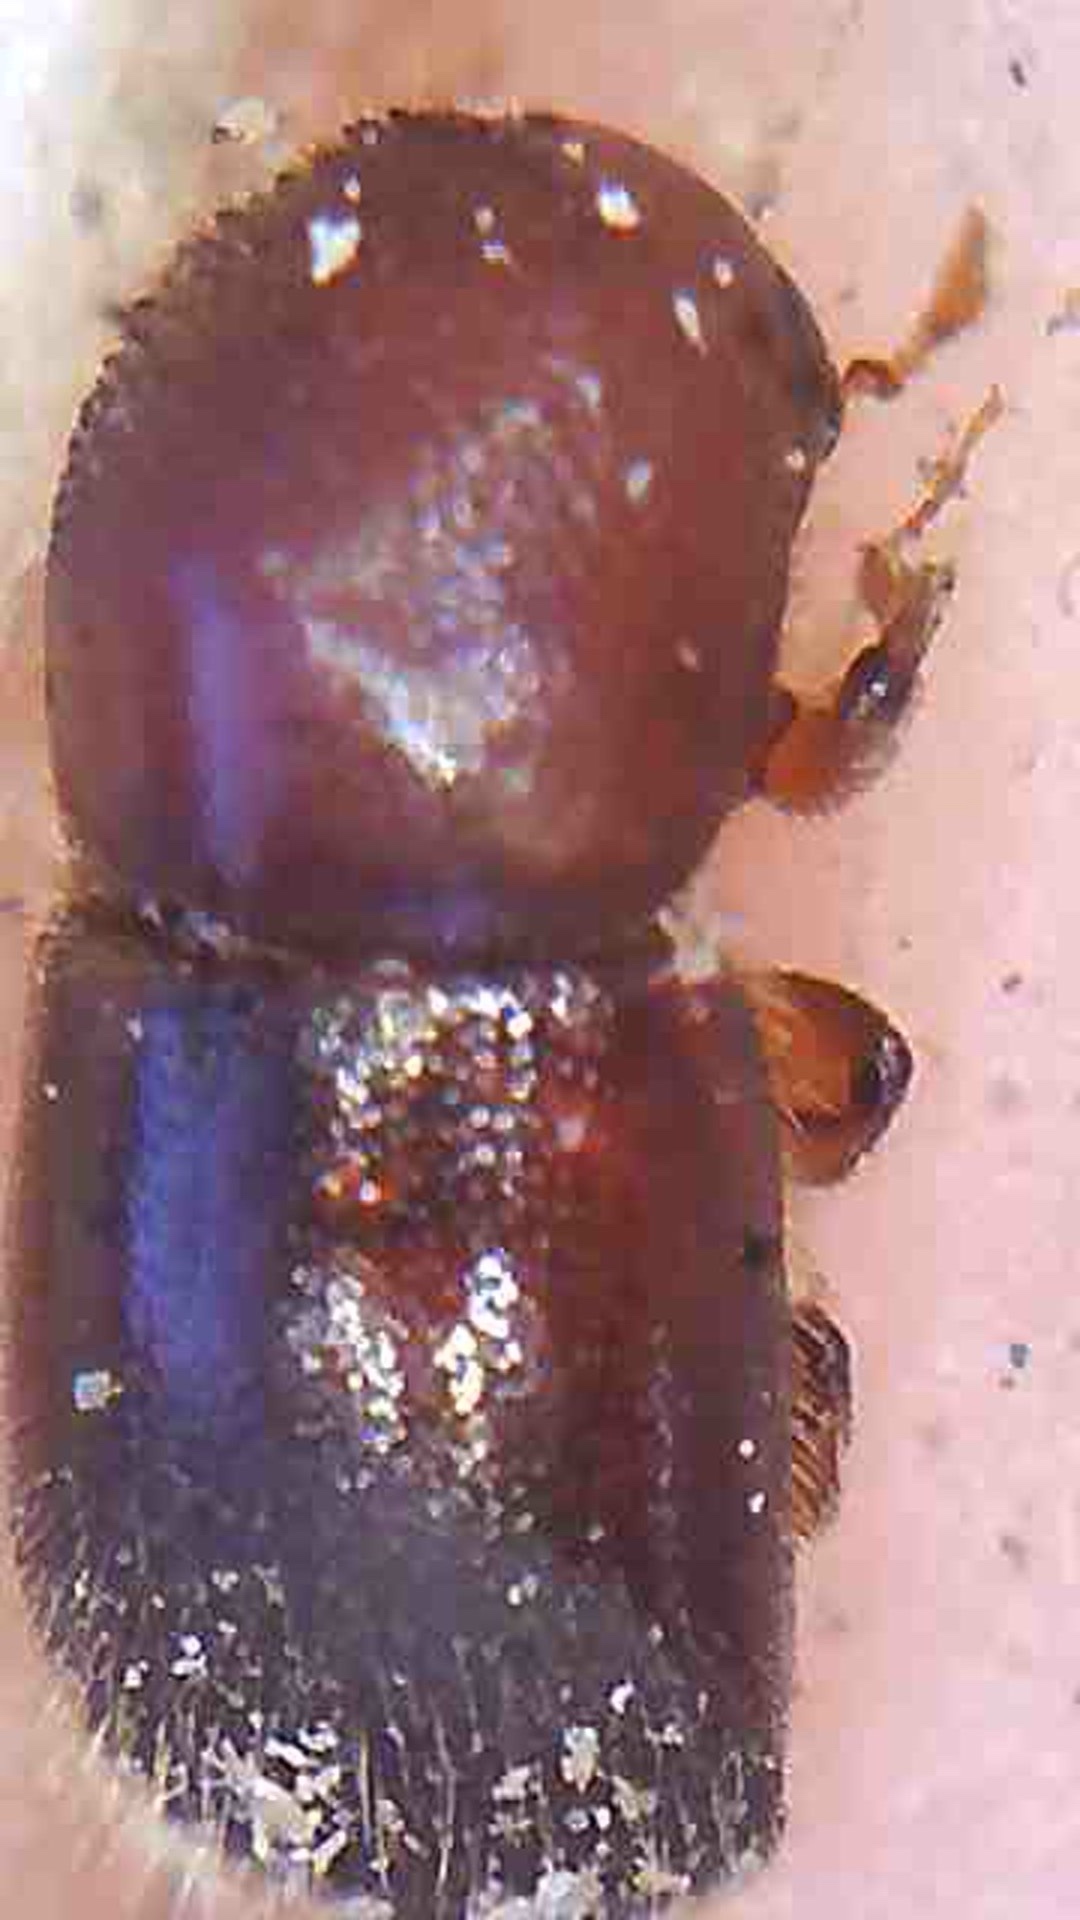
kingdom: Animalia
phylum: Arthropoda
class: Insecta
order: Coleoptera
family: Curculionidae
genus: Xylosandrus
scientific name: Xylosandrus crassiusculus
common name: Granulate ambrosia beetle
